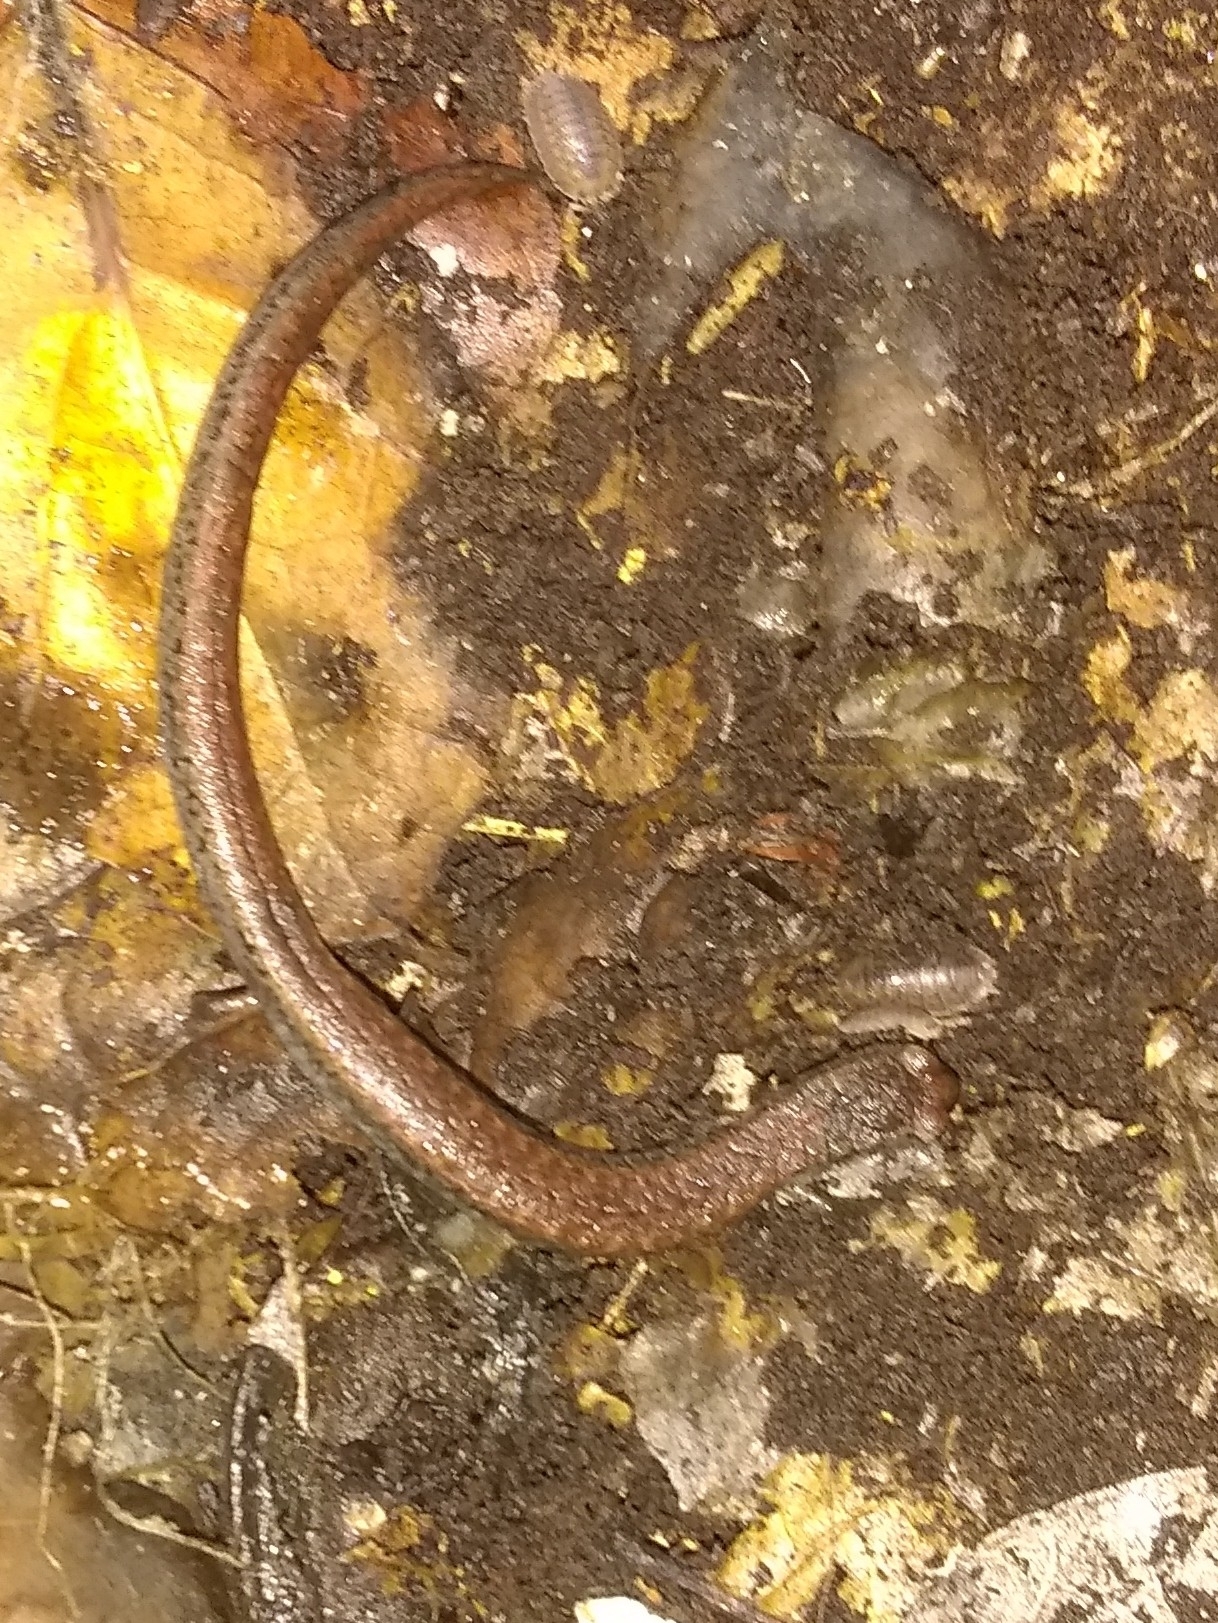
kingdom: Animalia
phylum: Chordata
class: Amphibia
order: Caudata
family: Plethodontidae
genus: Batrachoseps
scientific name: Batrachoseps attenuatus
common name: California slender salamander
